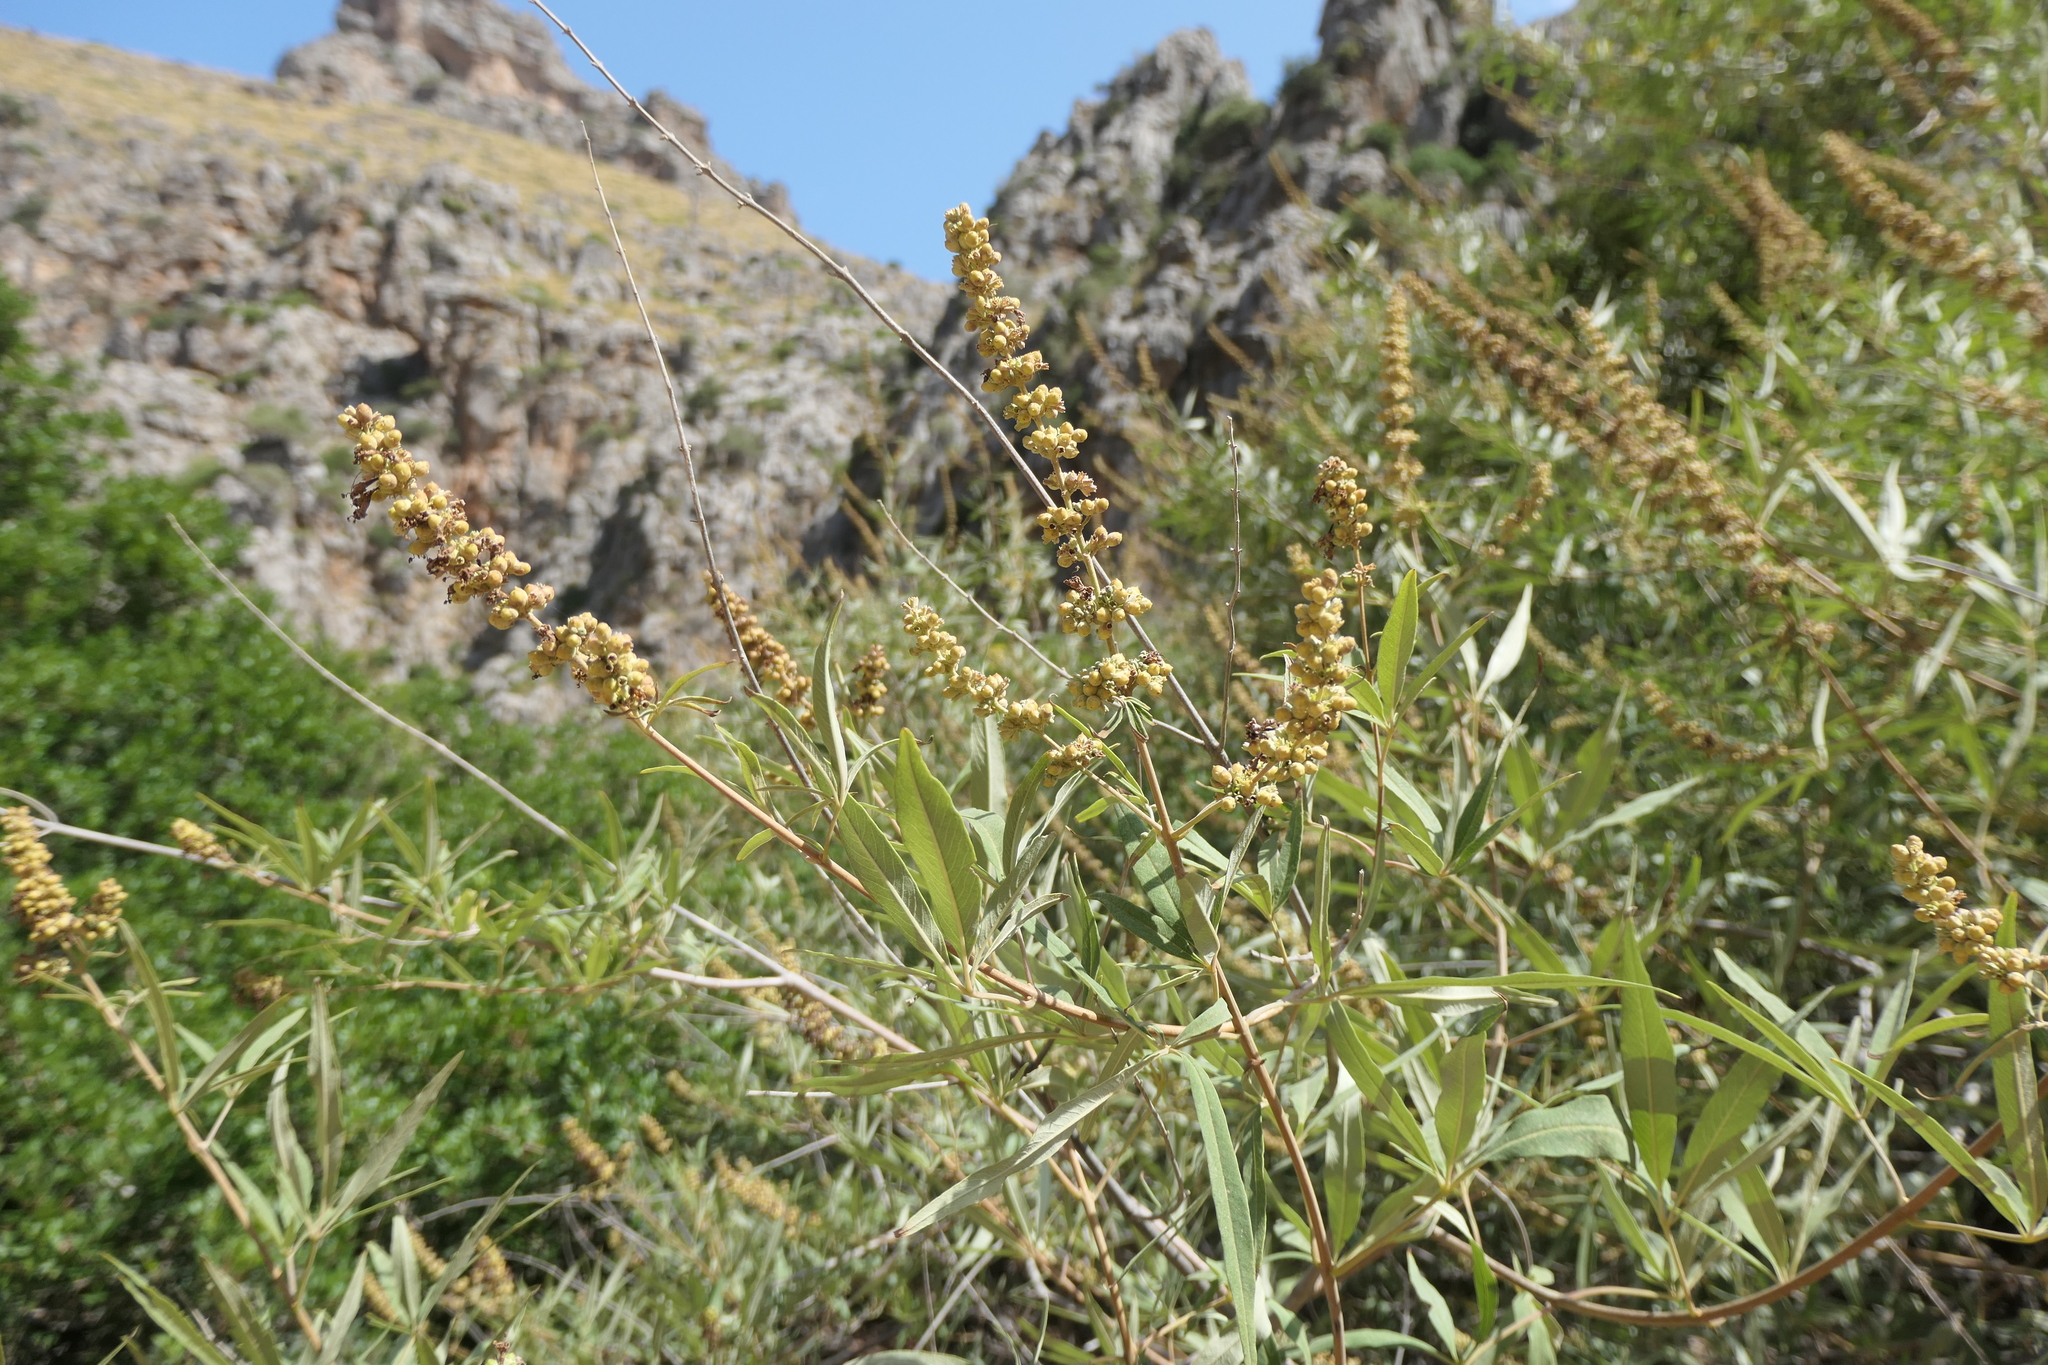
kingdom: Plantae
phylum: Tracheophyta
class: Magnoliopsida
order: Lamiales
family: Lamiaceae
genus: Vitex
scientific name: Vitex agnus-castus
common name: Chasteberry
